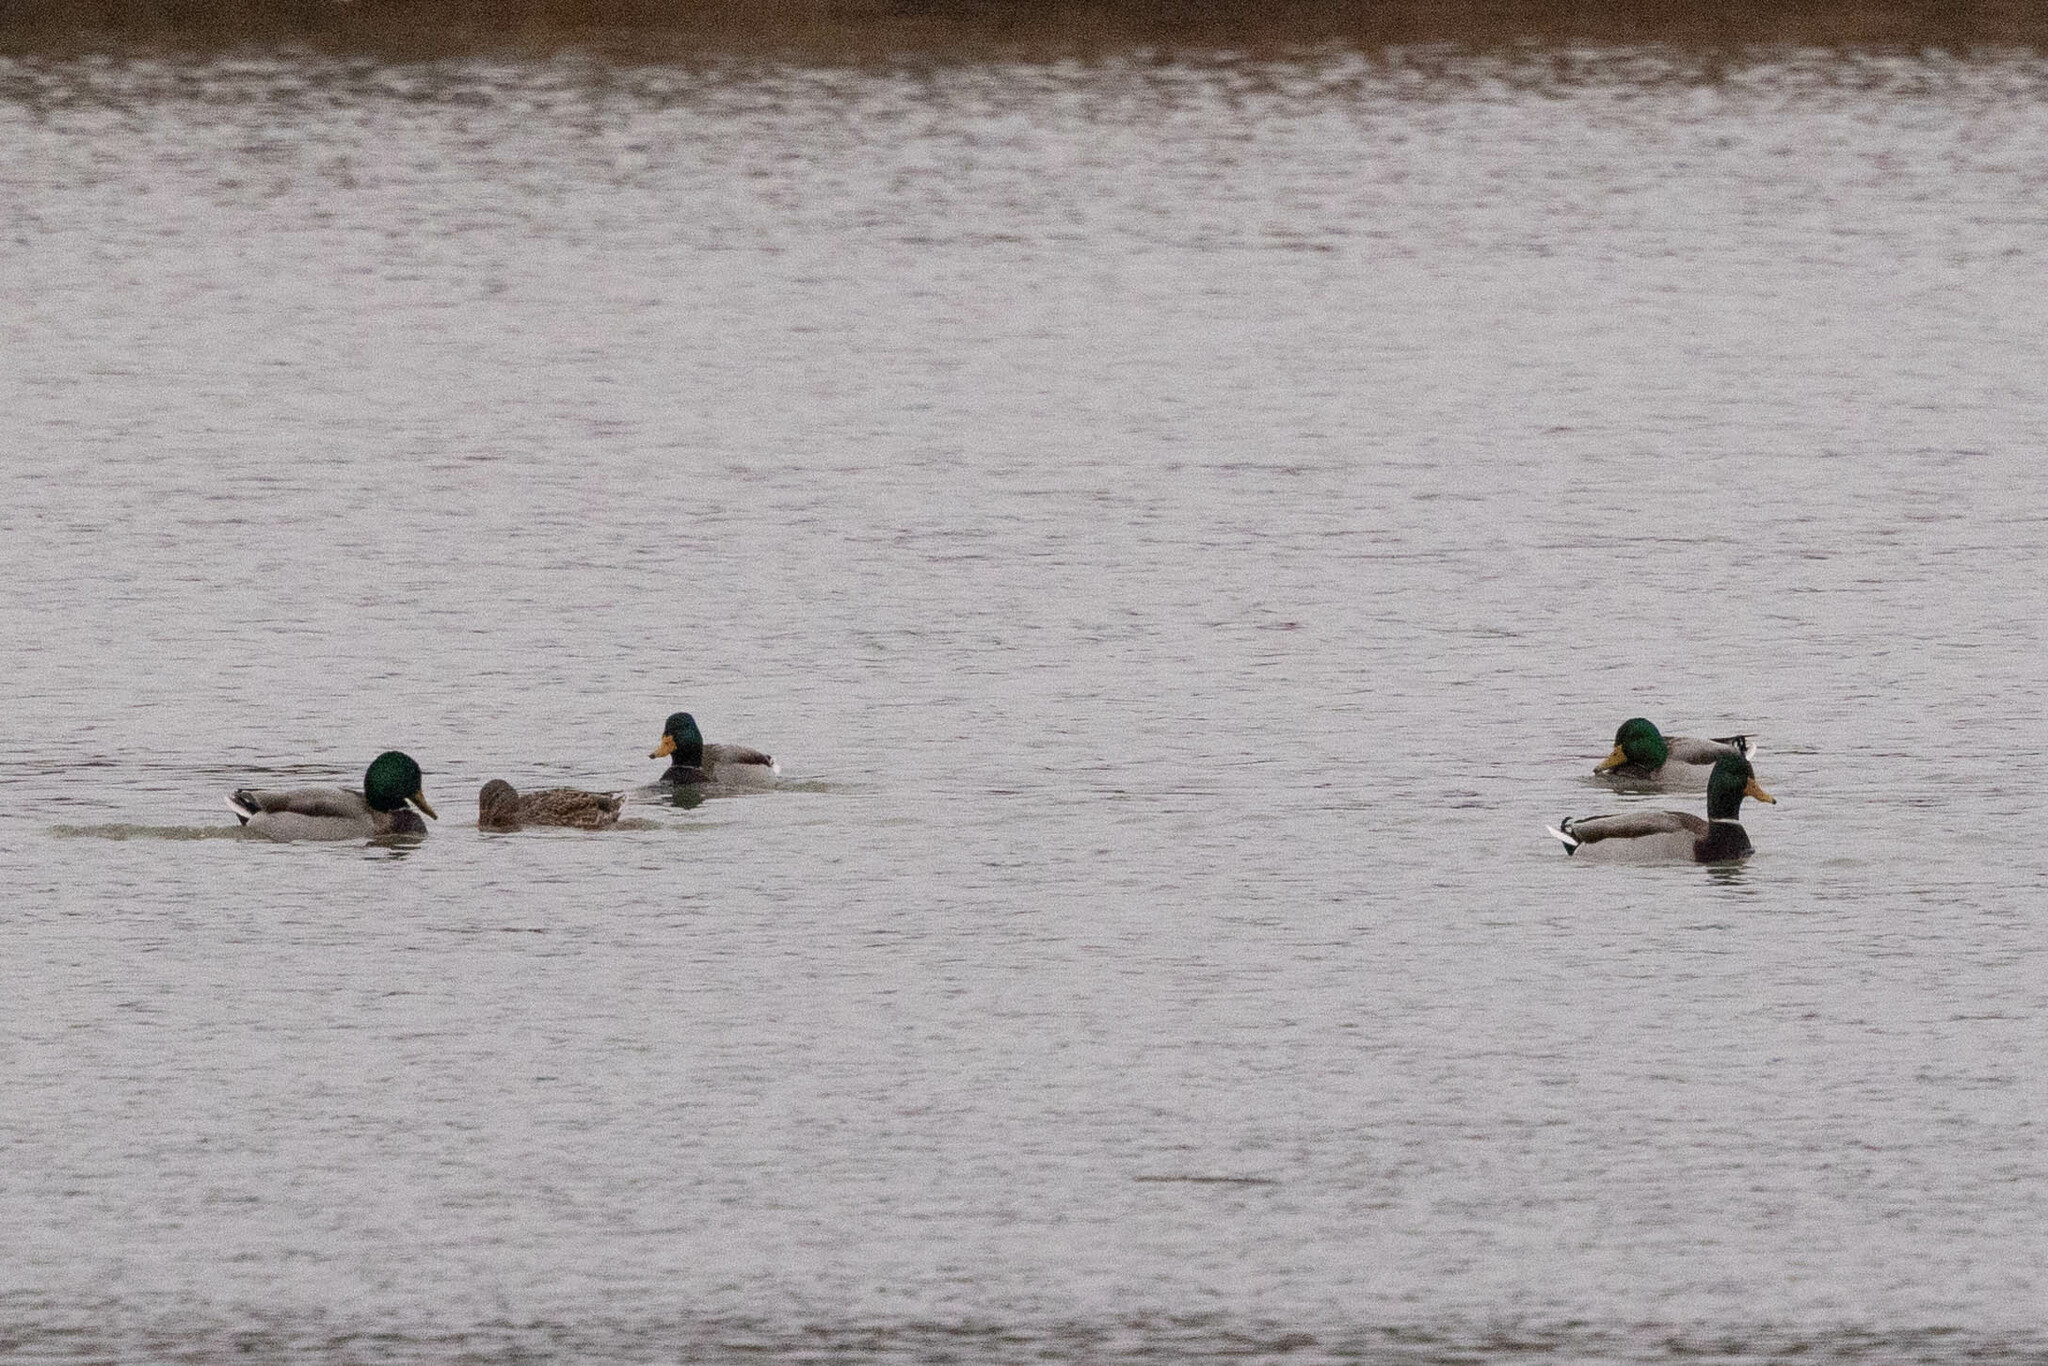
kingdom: Animalia
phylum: Chordata
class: Aves
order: Anseriformes
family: Anatidae
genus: Anas
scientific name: Anas platyrhynchos
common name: Mallard
